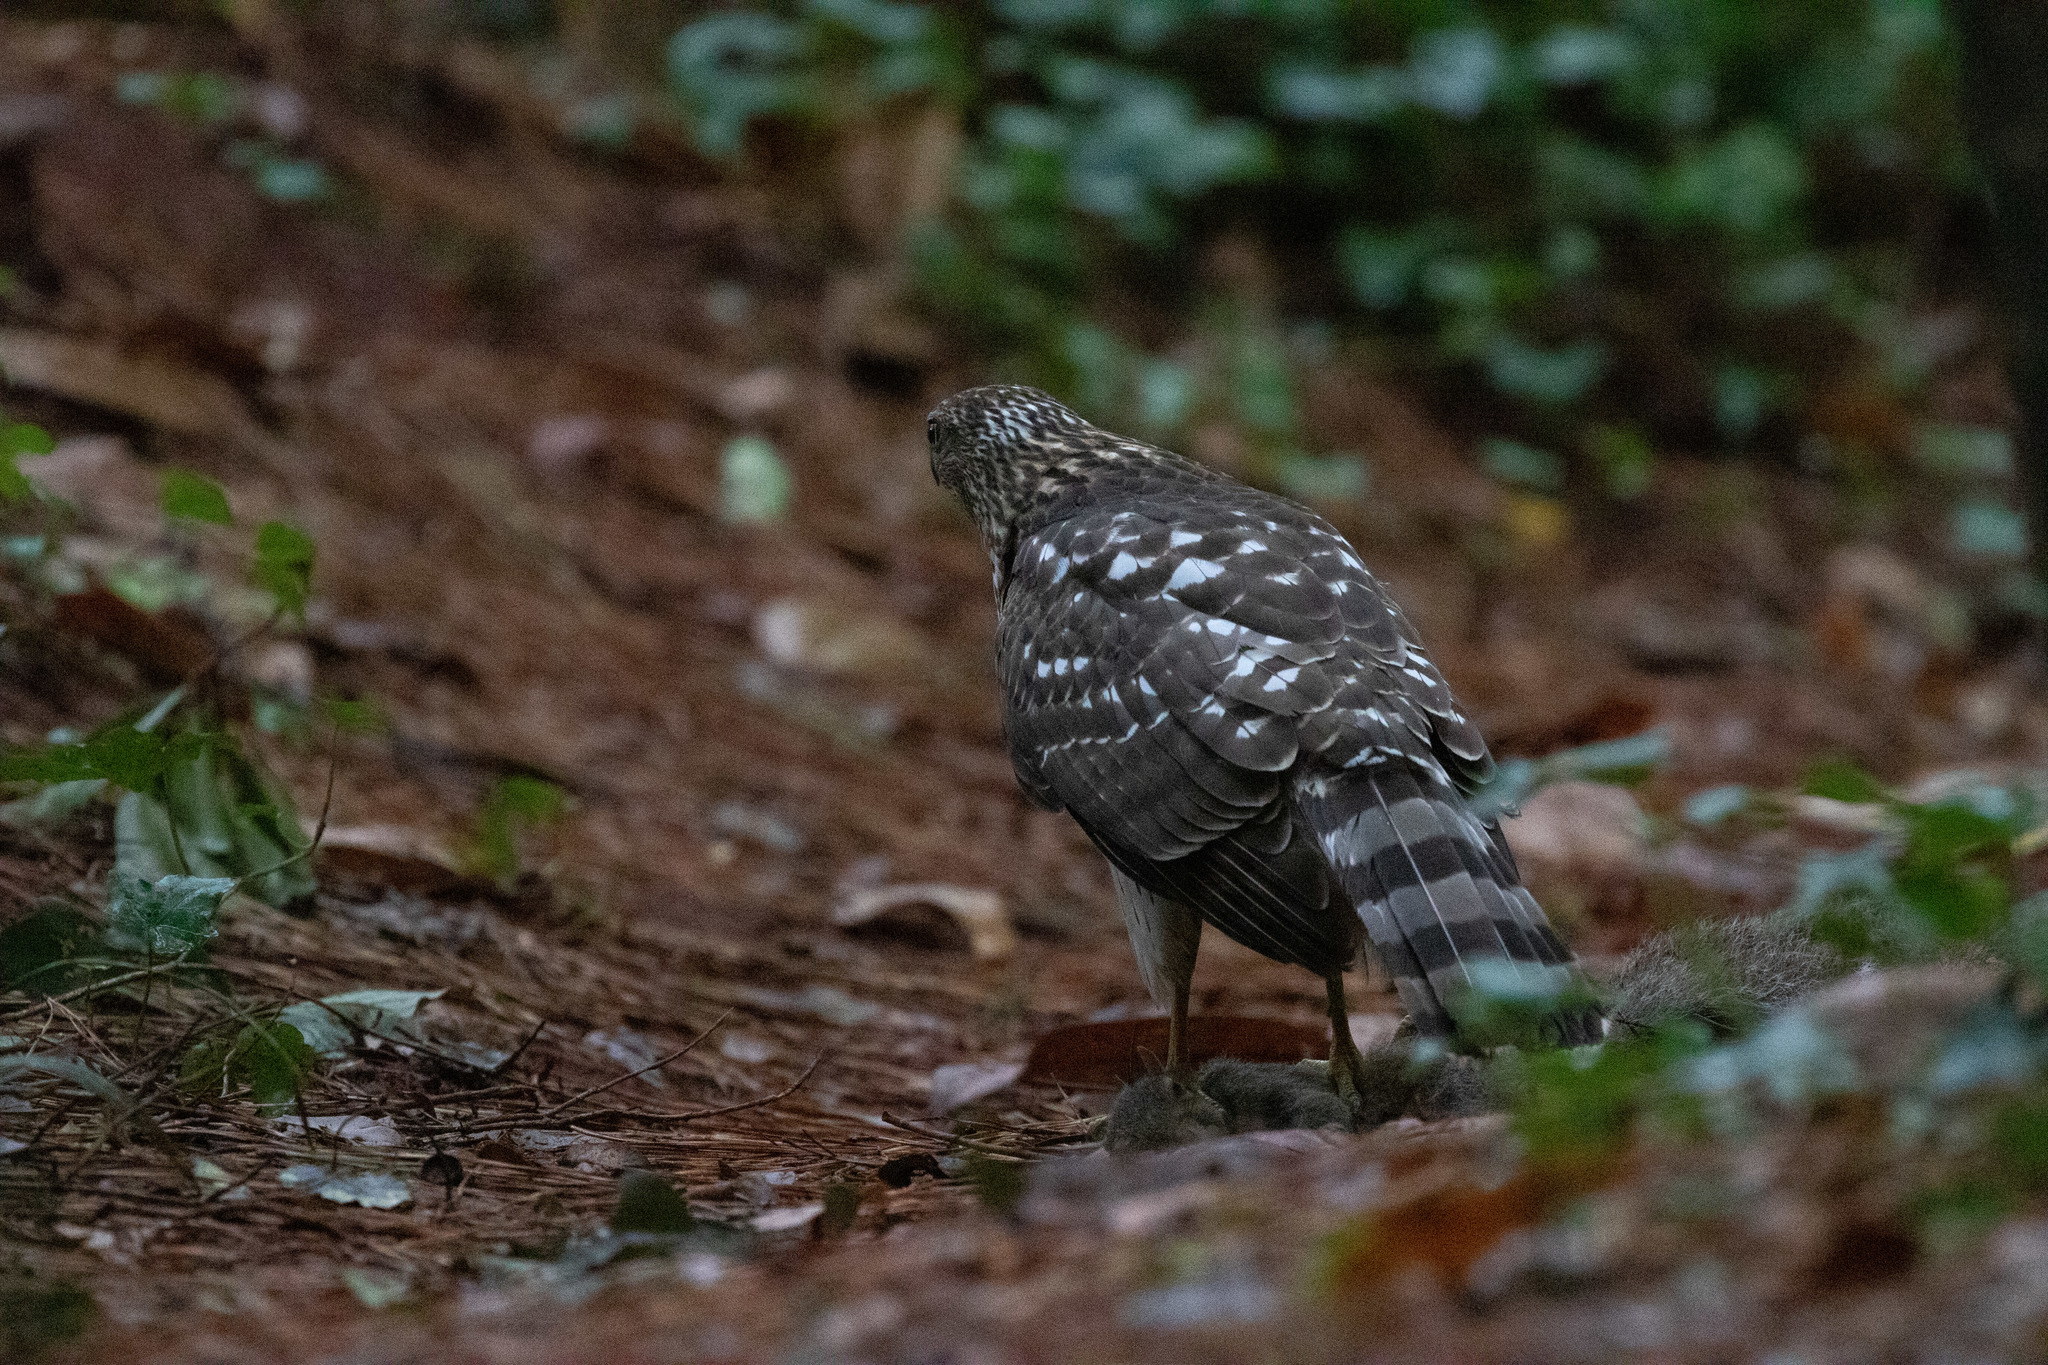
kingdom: Animalia
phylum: Chordata
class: Aves
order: Accipitriformes
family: Accipitridae
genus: Accipiter
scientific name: Accipiter cooperii
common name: Cooper's hawk
